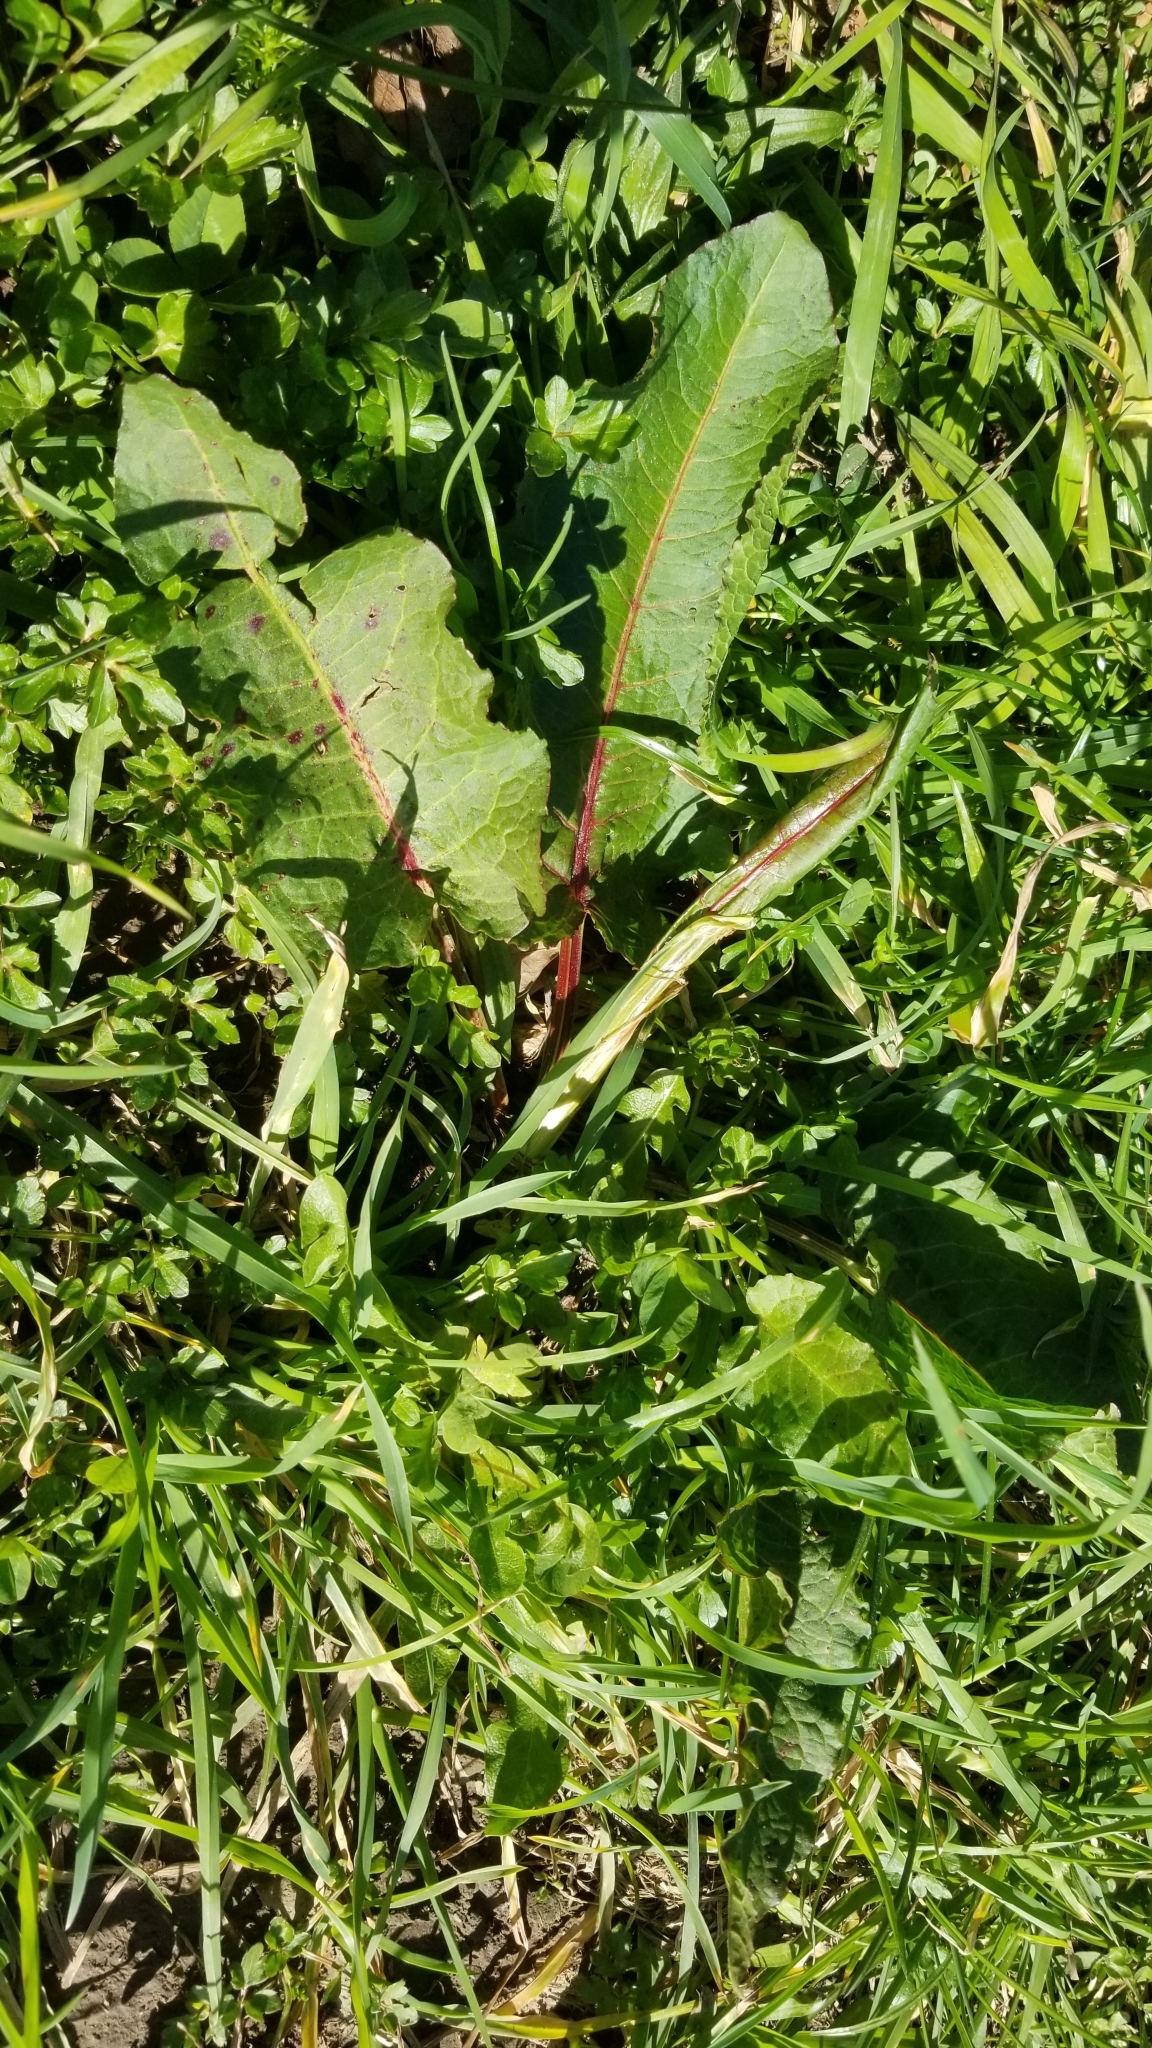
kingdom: Plantae
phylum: Tracheophyta
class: Magnoliopsida
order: Caryophyllales
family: Polygonaceae
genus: Rumex
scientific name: Rumex obtusifolius
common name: Bitter dock
